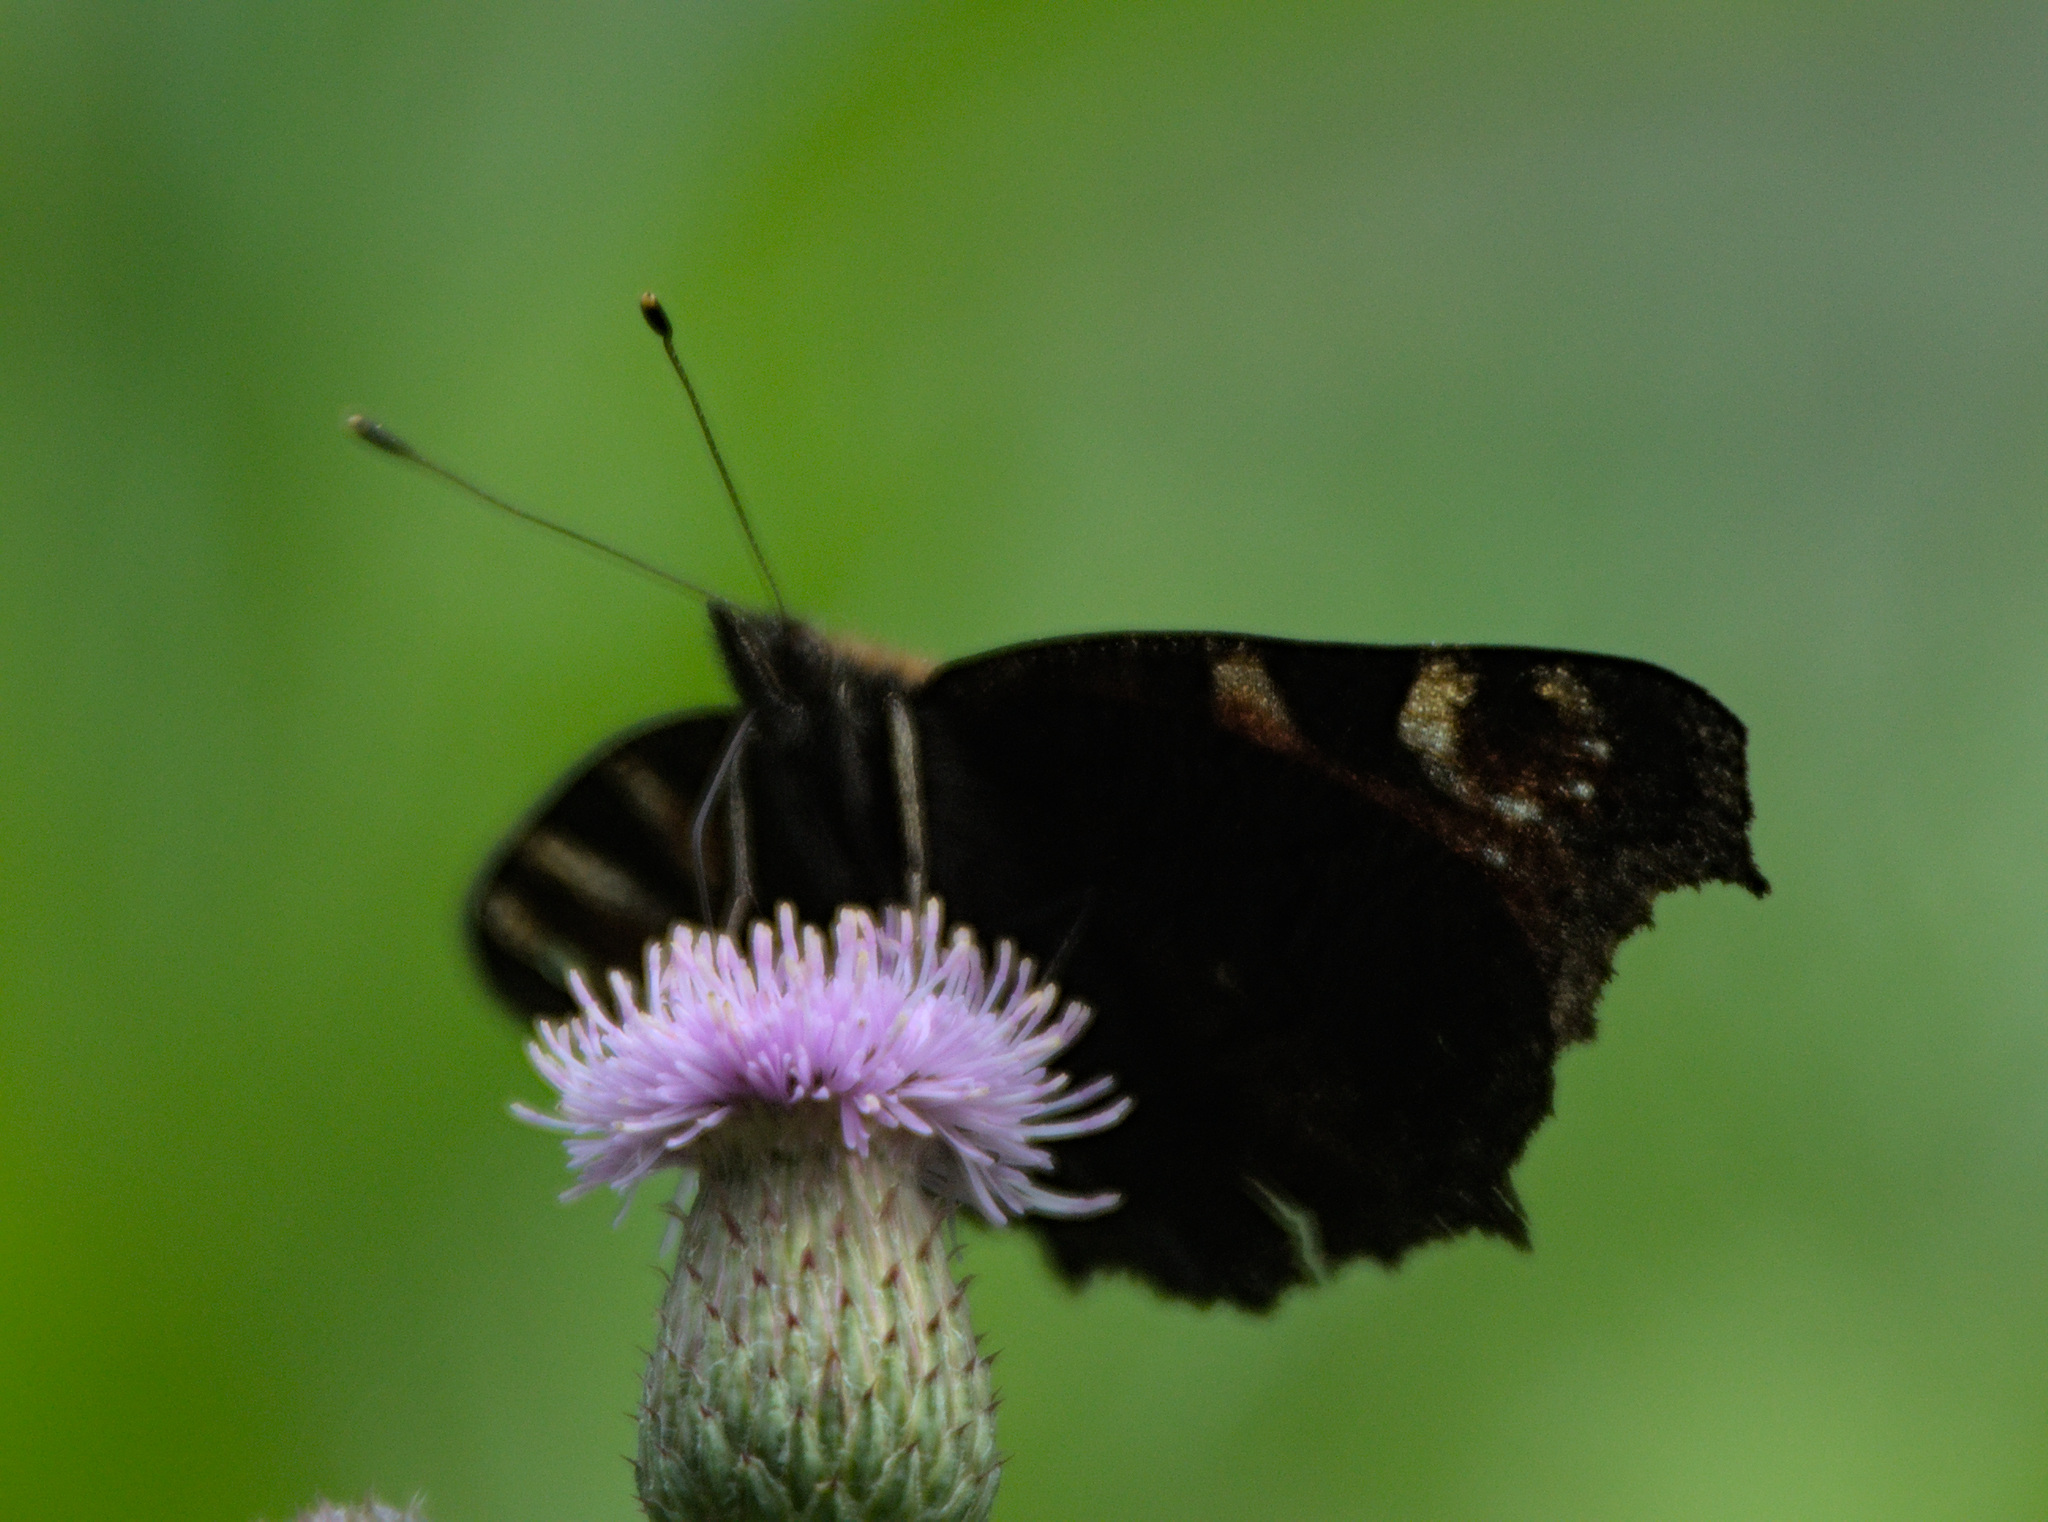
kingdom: Animalia
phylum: Arthropoda
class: Insecta
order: Lepidoptera
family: Nymphalidae
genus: Aglais
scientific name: Aglais io
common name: Peacock
